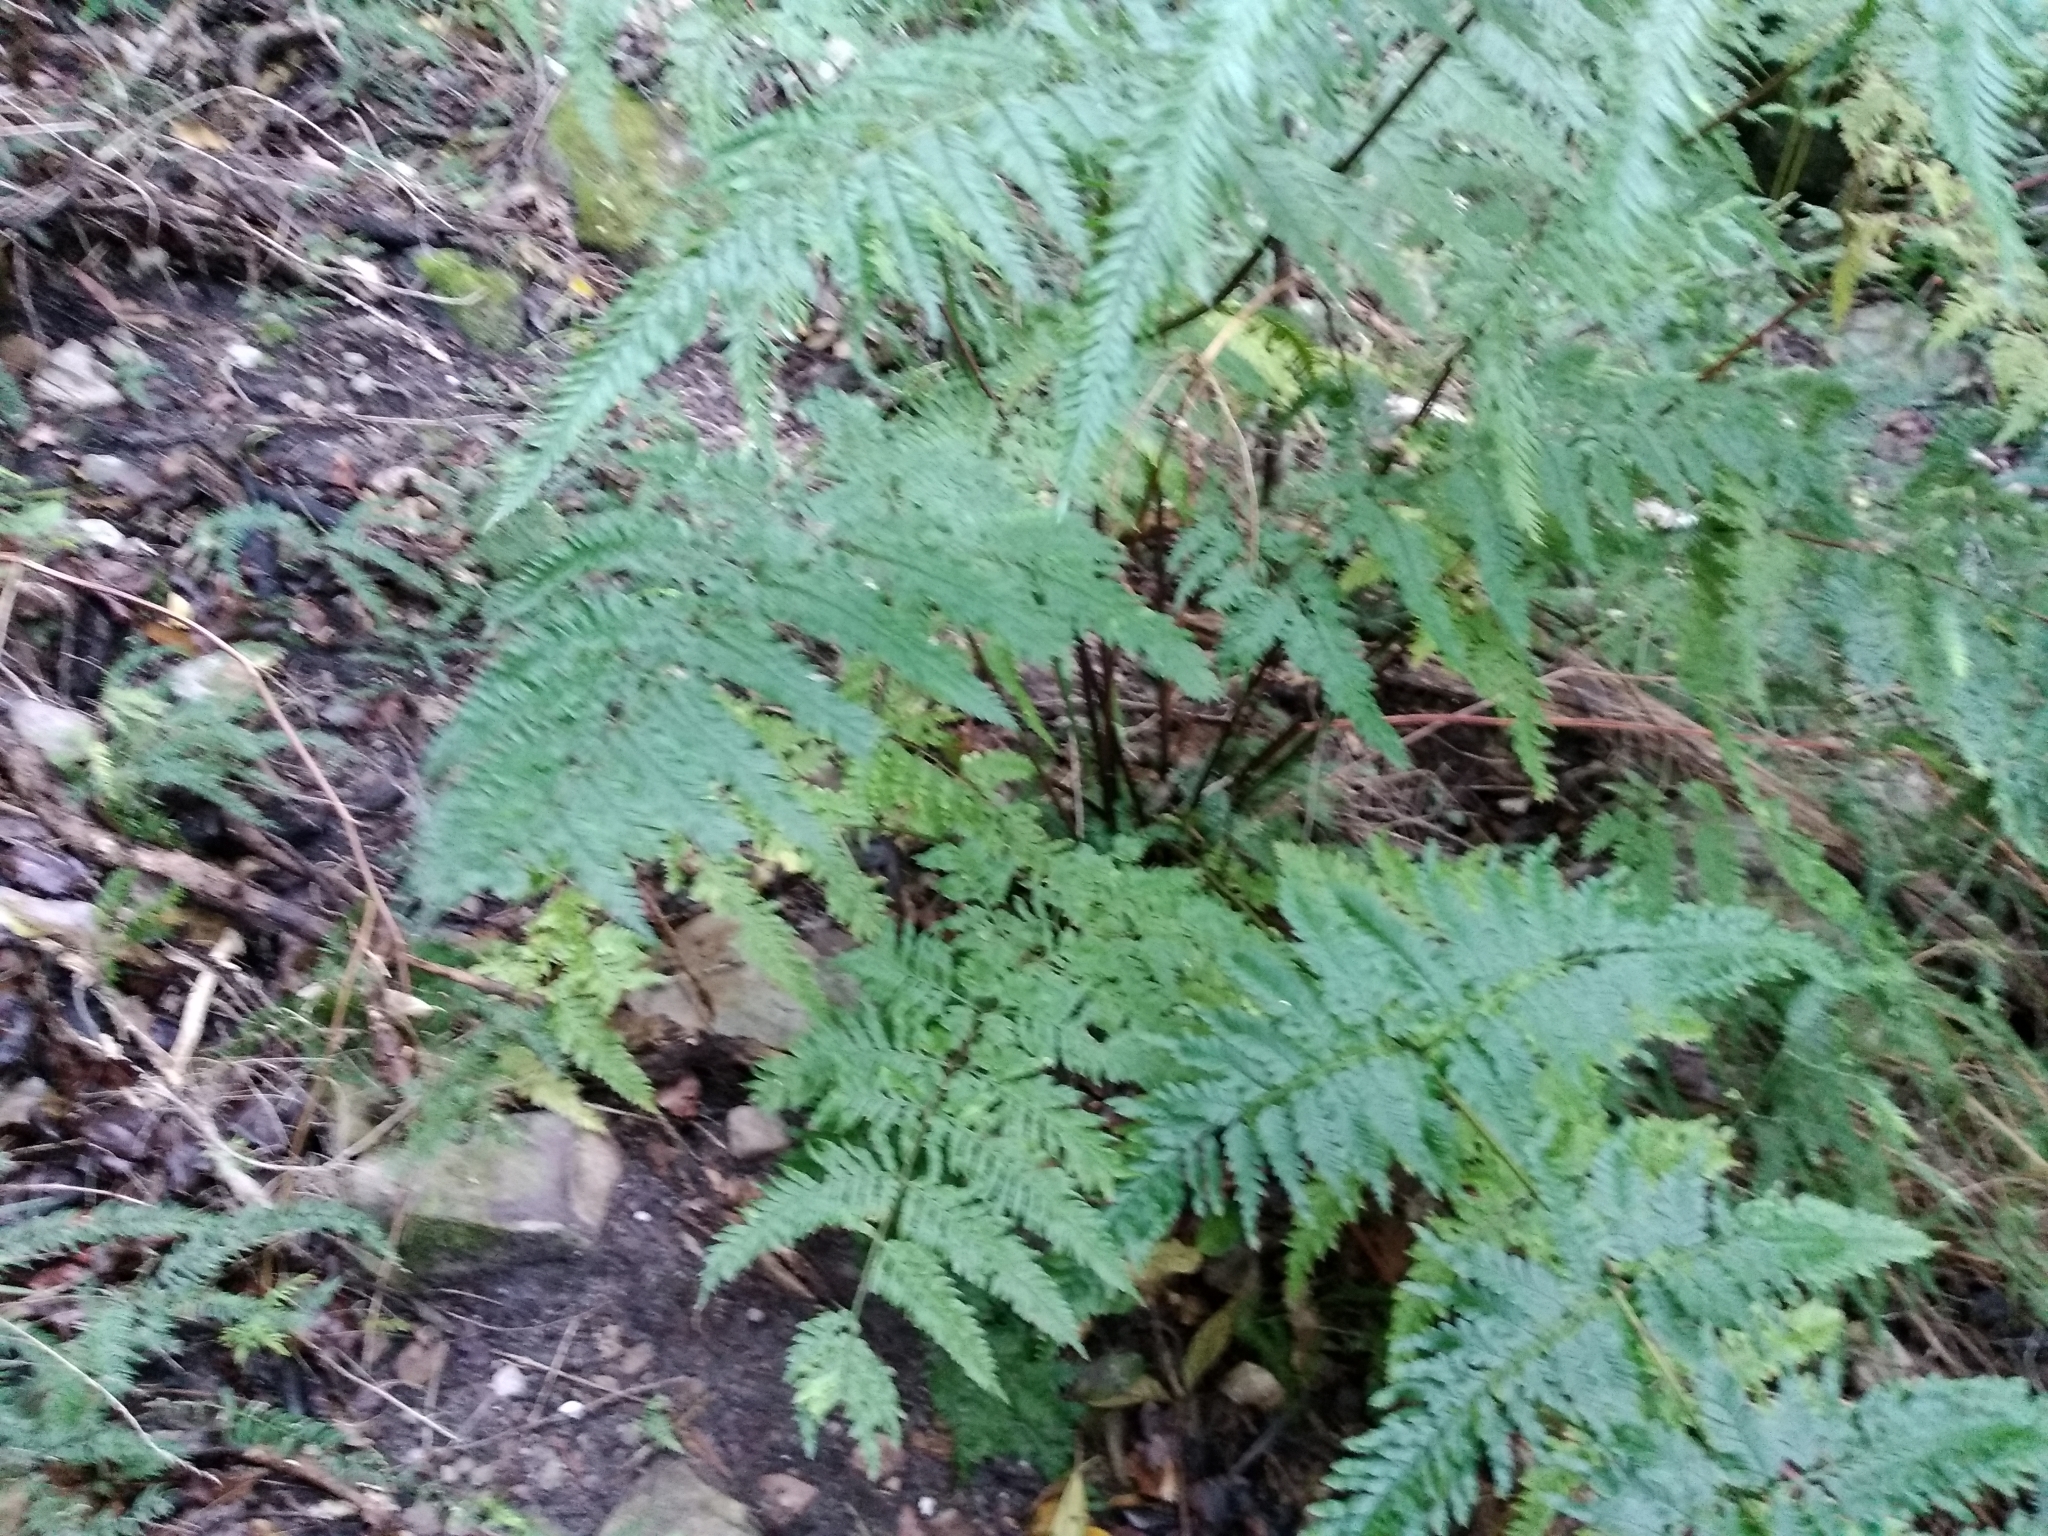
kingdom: Plantae
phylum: Tracheophyta
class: Polypodiopsida
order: Polypodiales
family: Pteridaceae
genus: Pteris
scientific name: Pteris dentata
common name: Toothed brake
